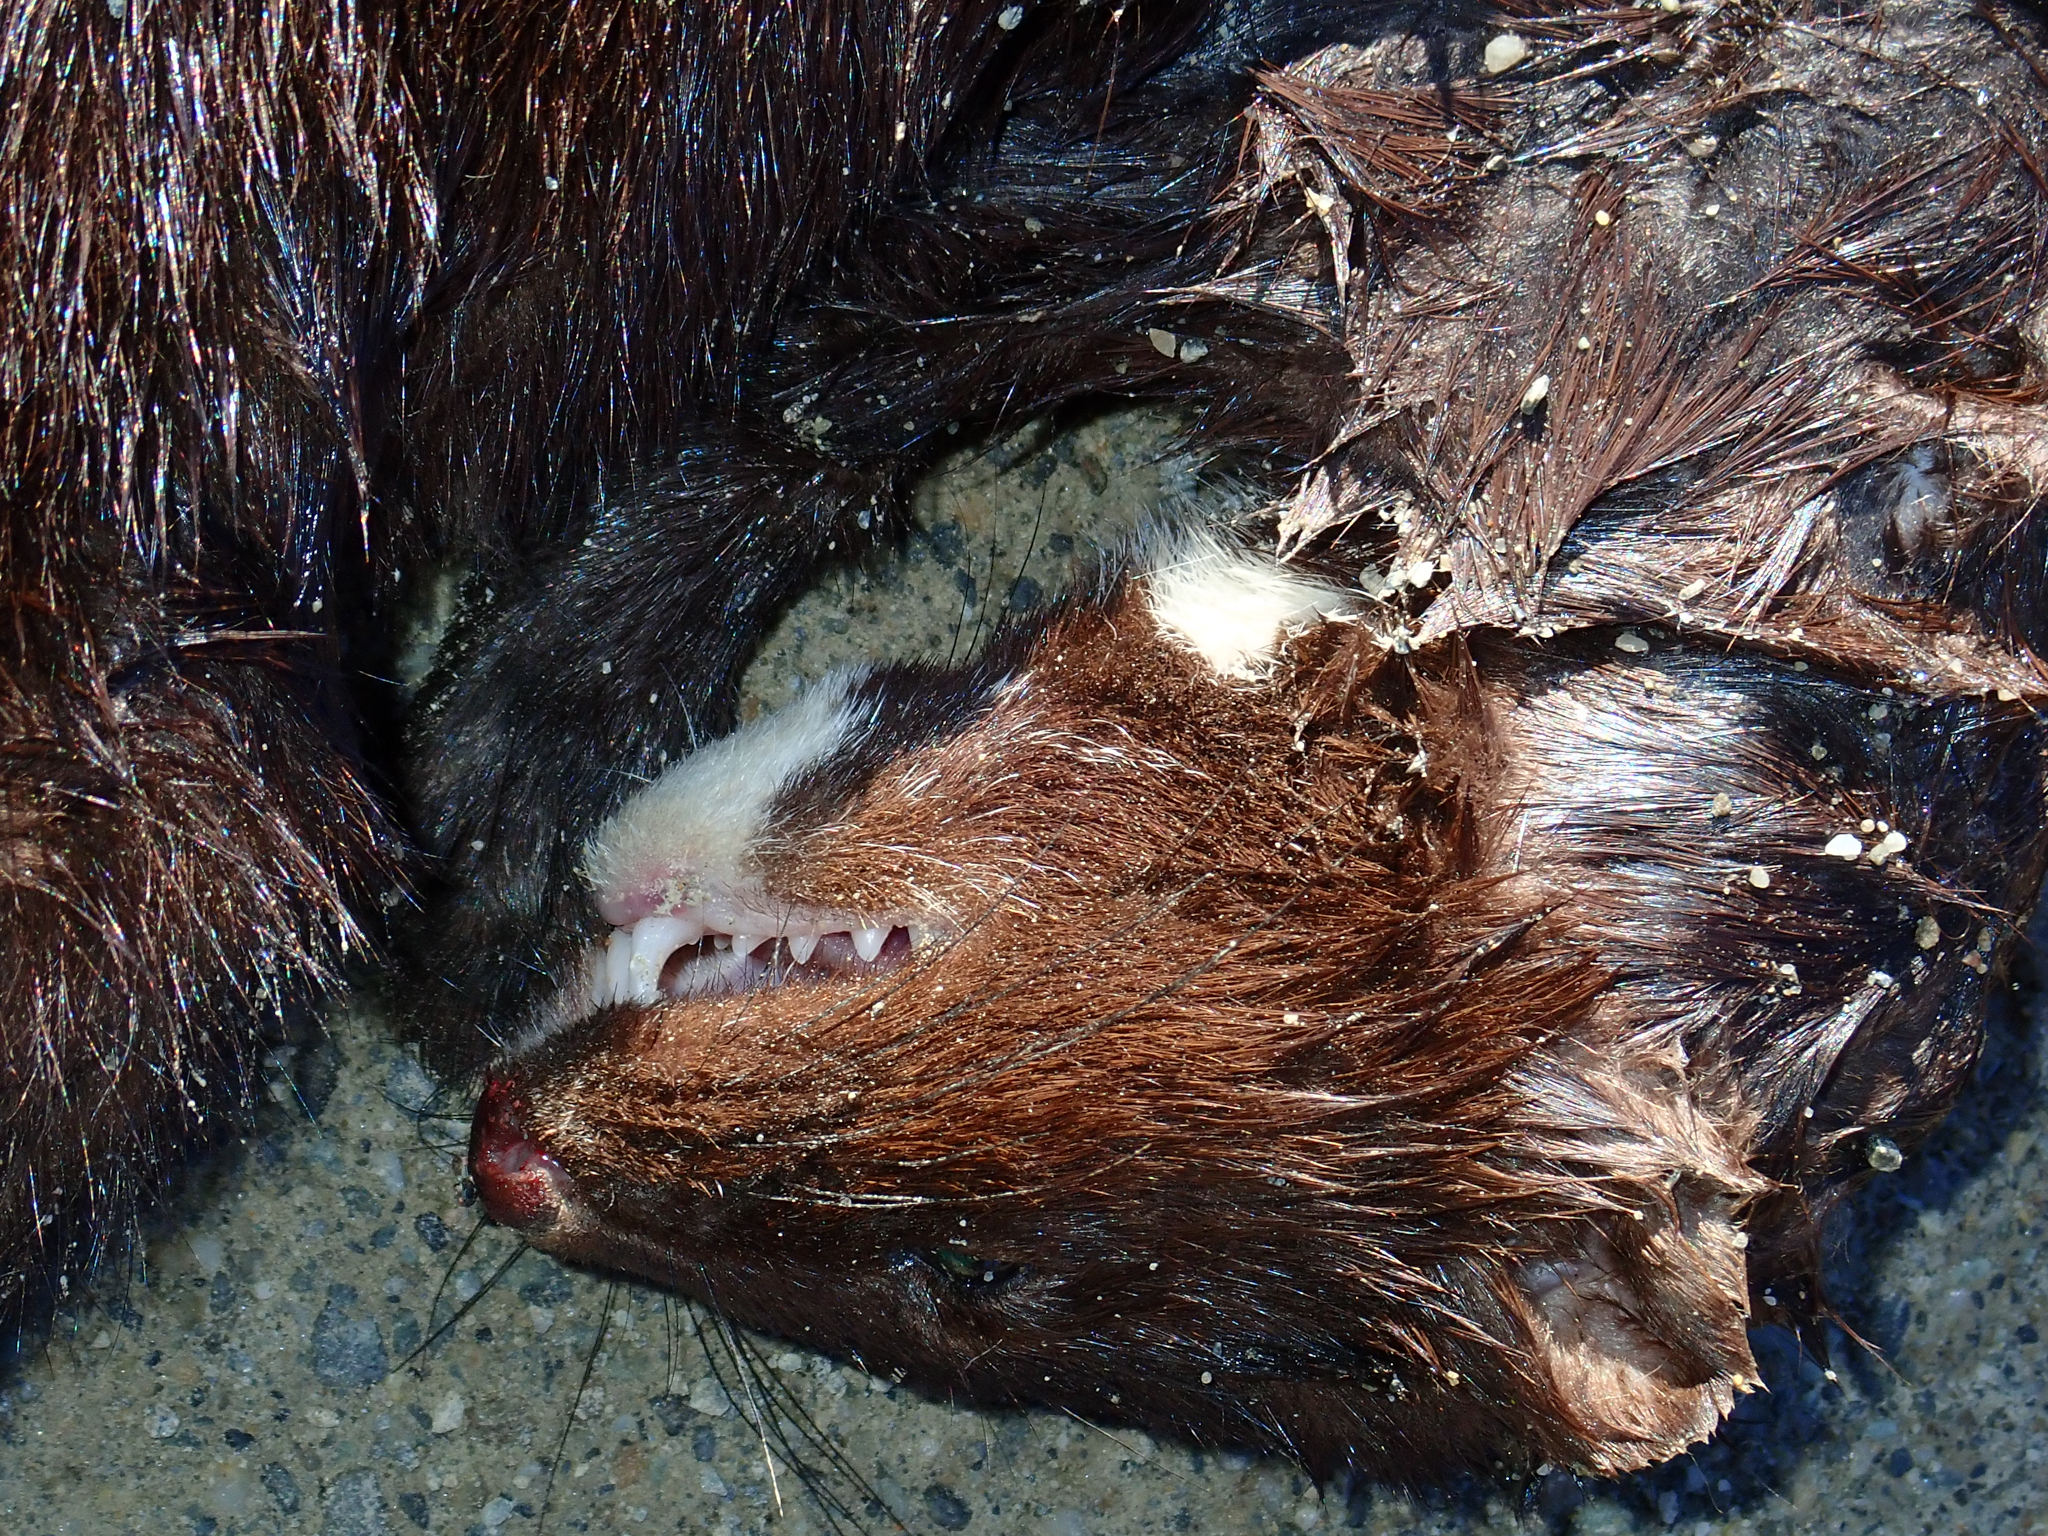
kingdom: Animalia
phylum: Chordata
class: Mammalia
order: Carnivora
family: Mustelidae
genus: Mustela
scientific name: Mustela
